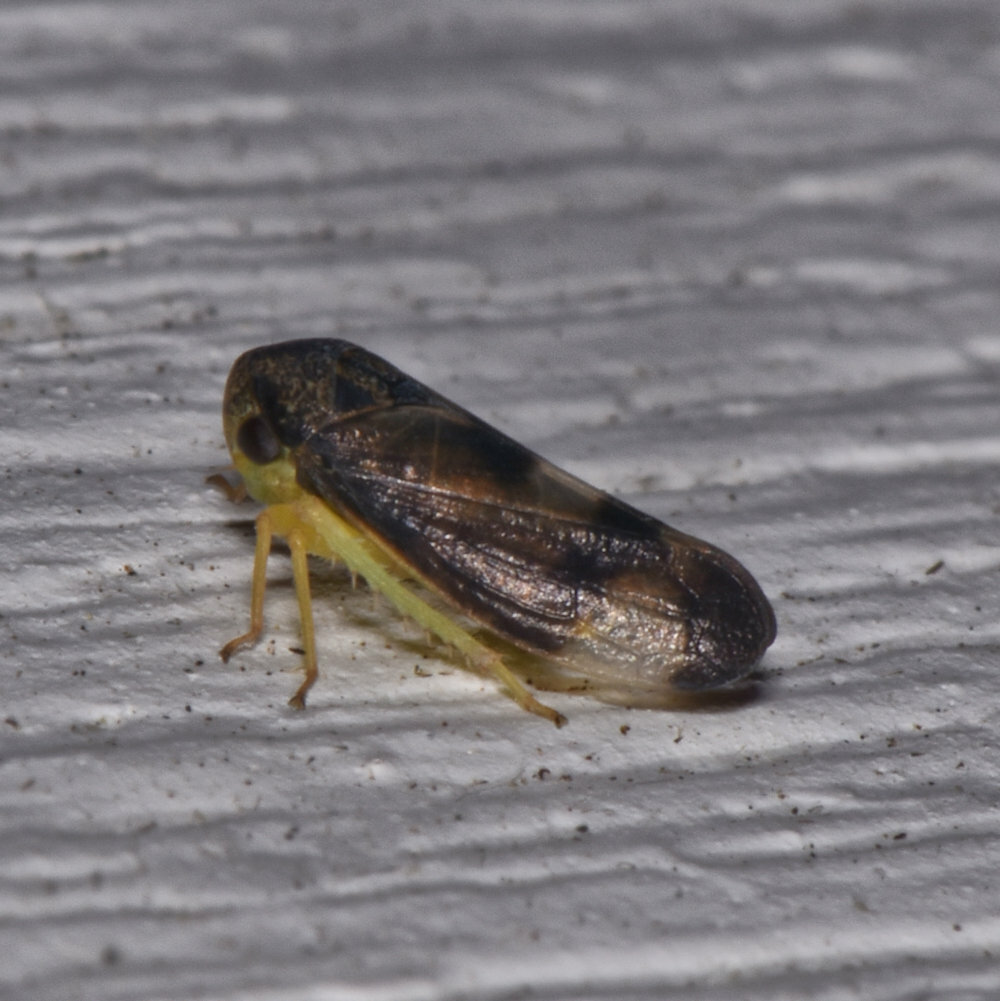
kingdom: Animalia
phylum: Arthropoda
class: Insecta
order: Hemiptera
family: Cicadellidae
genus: Pediopsoides
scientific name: Pediopsoides distinctus
